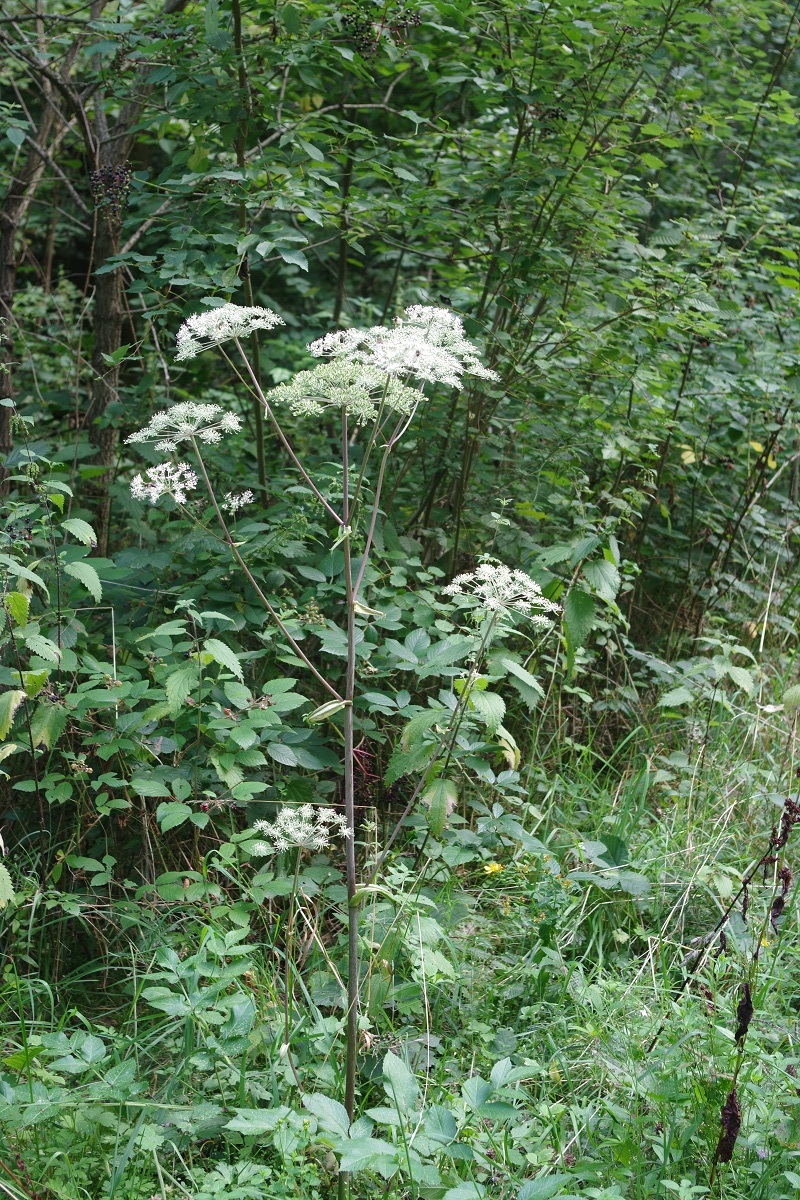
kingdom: Plantae
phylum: Tracheophyta
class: Magnoliopsida
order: Apiales
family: Apiaceae
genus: Angelica
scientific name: Angelica sylvestris
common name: Wild angelica
